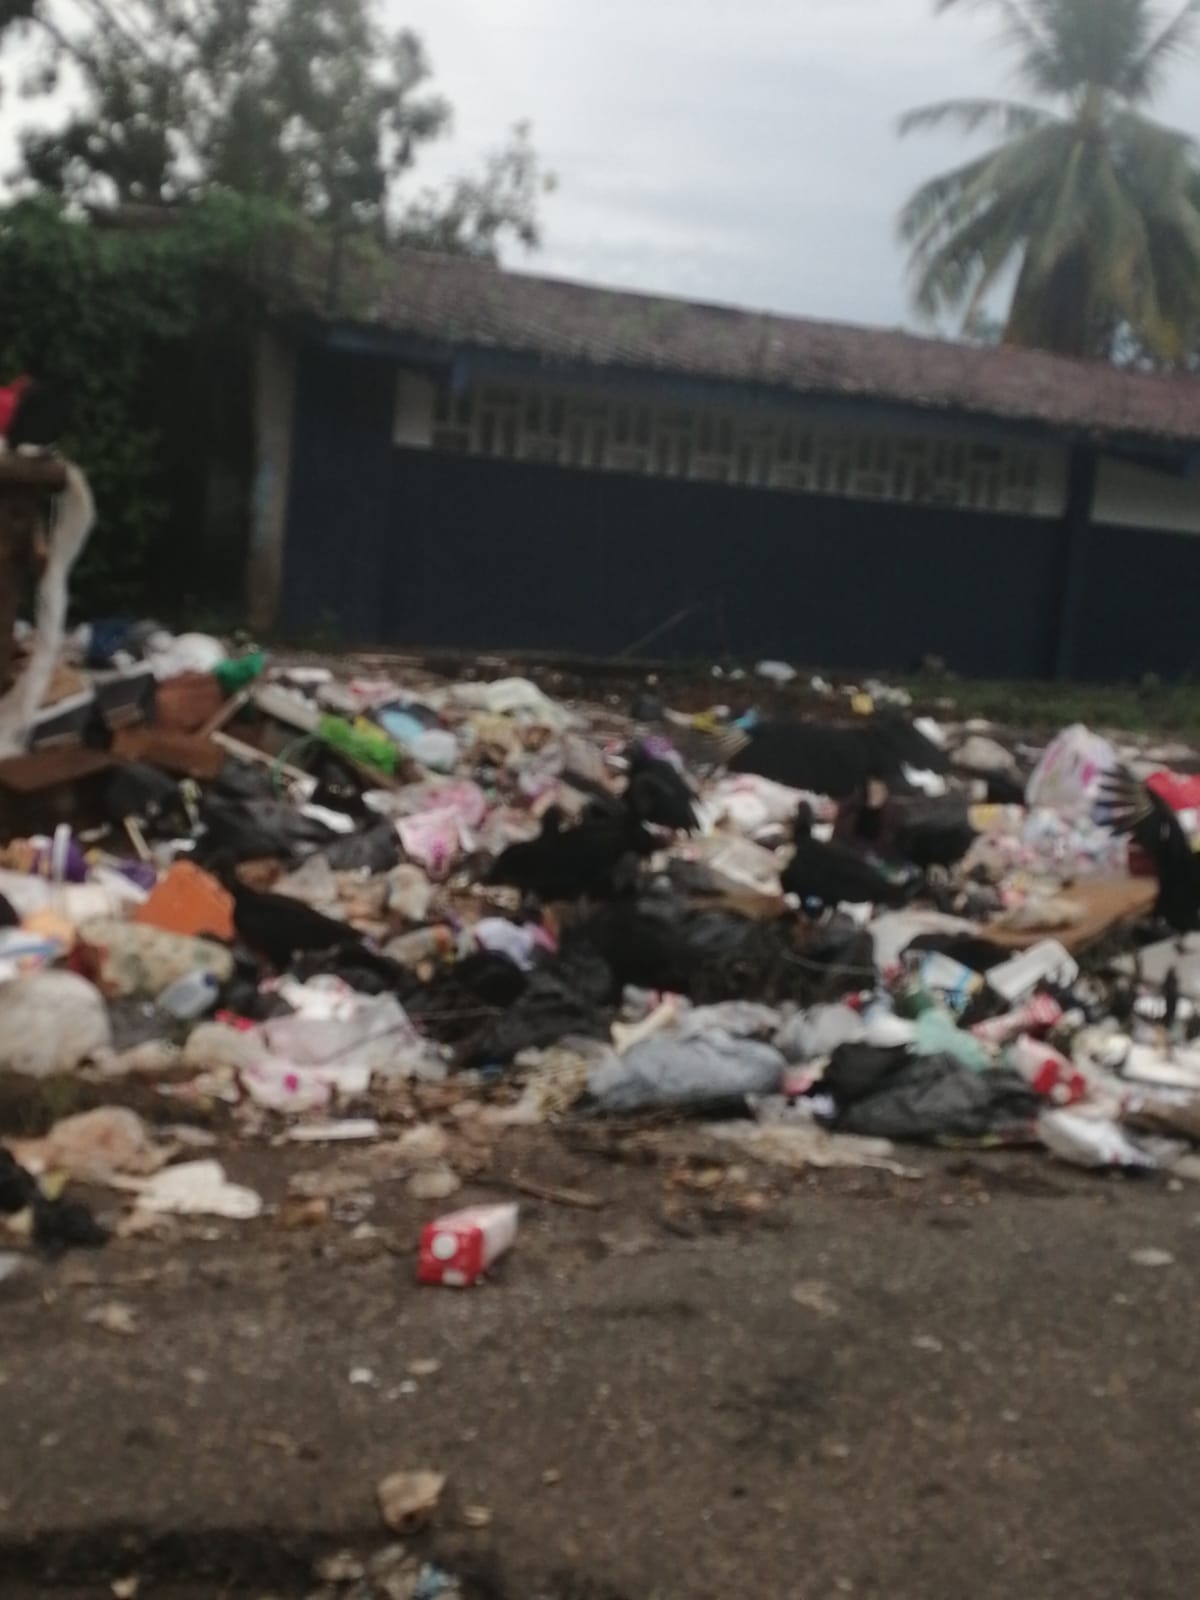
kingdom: Animalia
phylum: Chordata
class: Aves
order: Accipitriformes
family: Cathartidae
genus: Coragyps
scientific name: Coragyps atratus
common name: Black vulture
